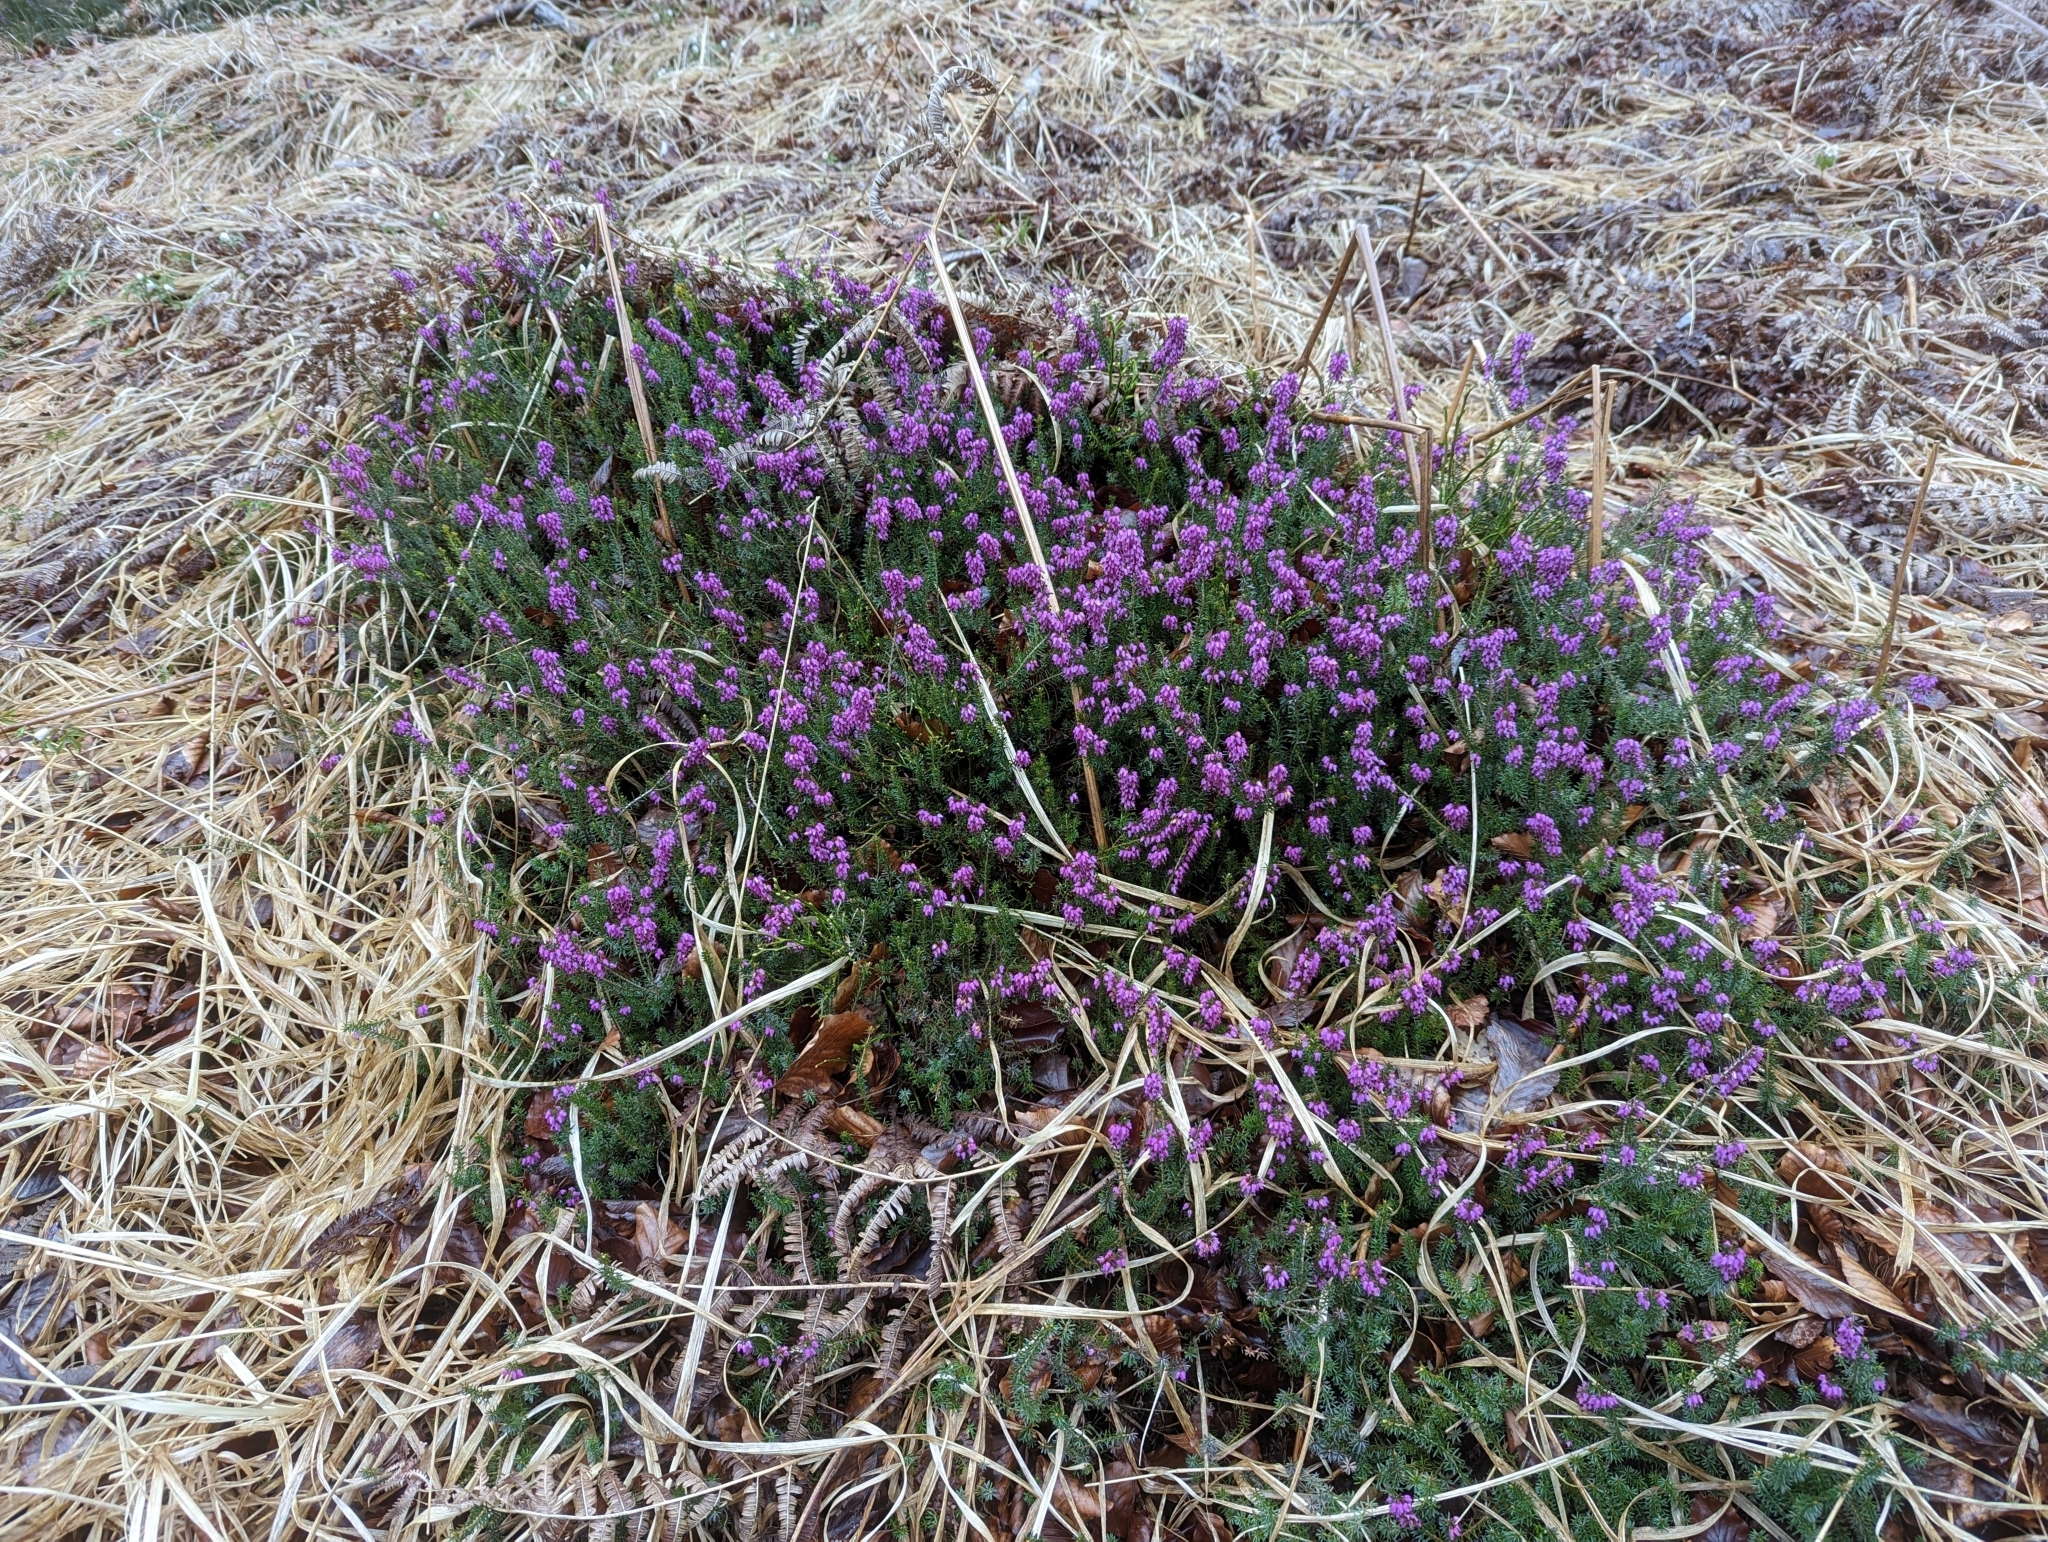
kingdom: Plantae
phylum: Tracheophyta
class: Magnoliopsida
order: Ericales
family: Ericaceae
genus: Erica
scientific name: Erica carnea
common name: Winter heath
